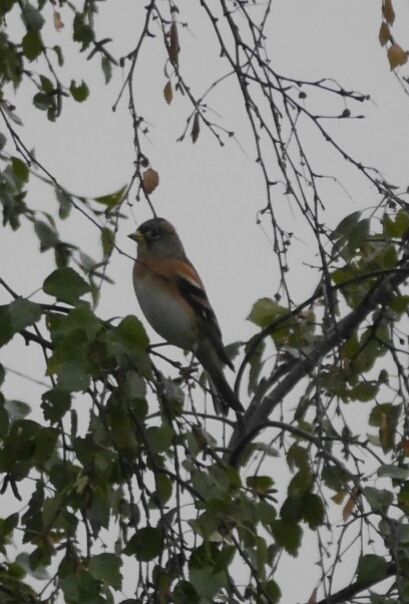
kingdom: Animalia
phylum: Chordata
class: Aves
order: Passeriformes
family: Fringillidae
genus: Fringilla
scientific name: Fringilla montifringilla
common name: Brambling
